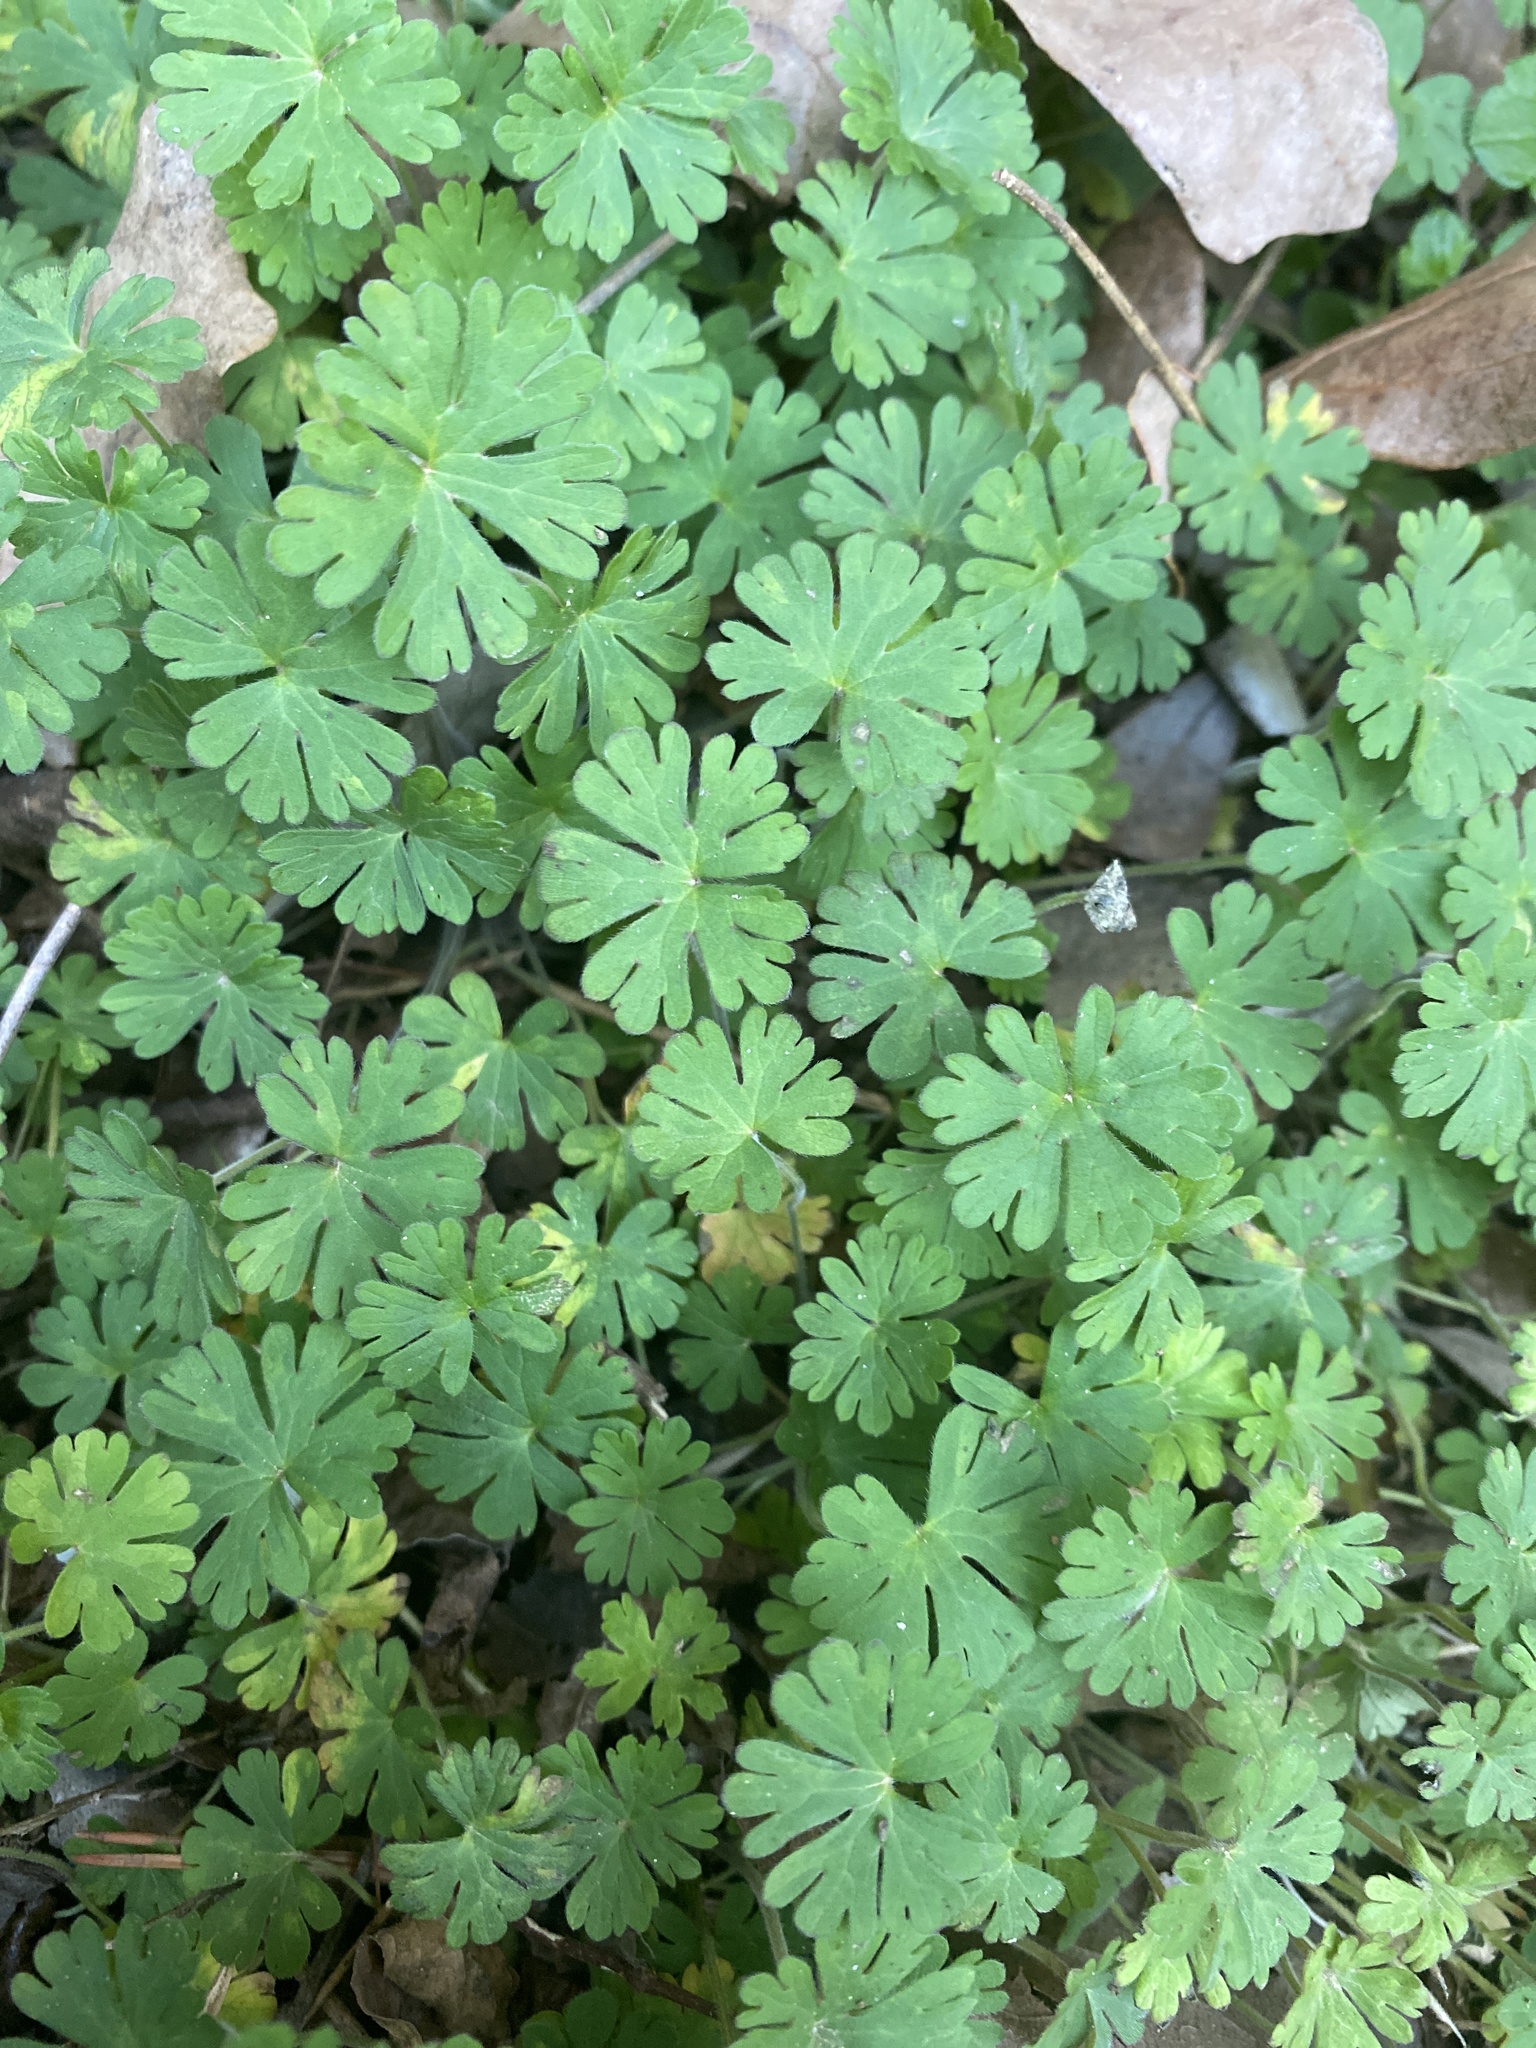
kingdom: Plantae
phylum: Tracheophyta
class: Magnoliopsida
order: Geraniales
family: Geraniaceae
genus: Geranium
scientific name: Geranium carolinianum
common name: Carolina crane's-bill
